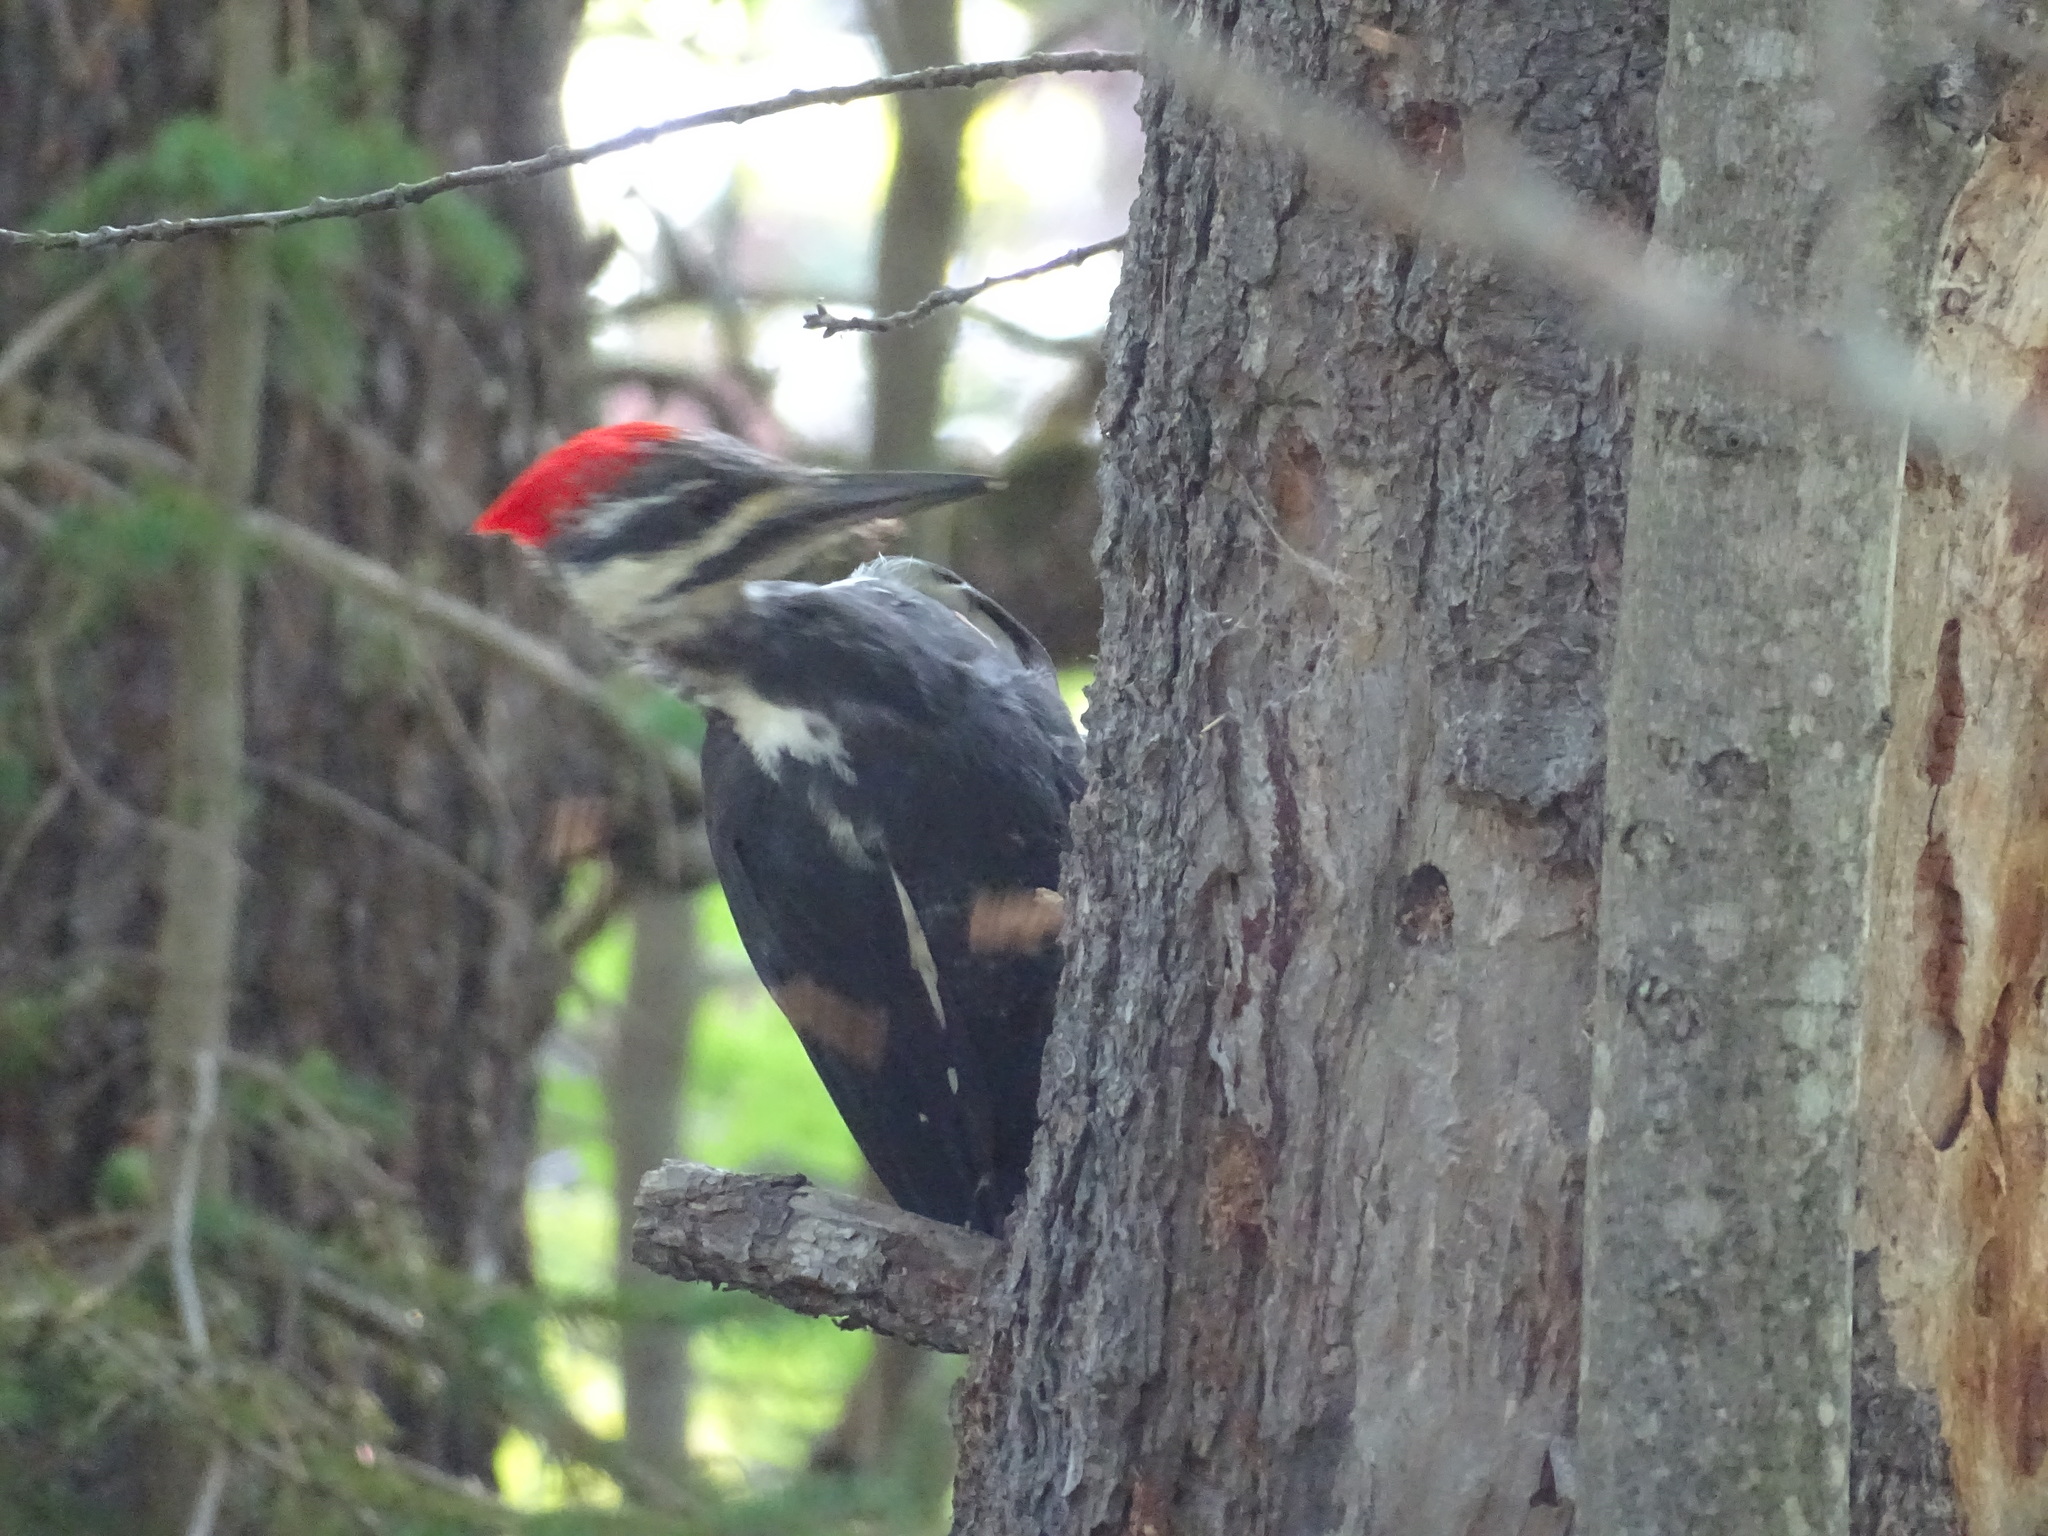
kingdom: Animalia
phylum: Chordata
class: Aves
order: Piciformes
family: Picidae
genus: Dryocopus
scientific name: Dryocopus pileatus
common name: Pileated woodpecker
